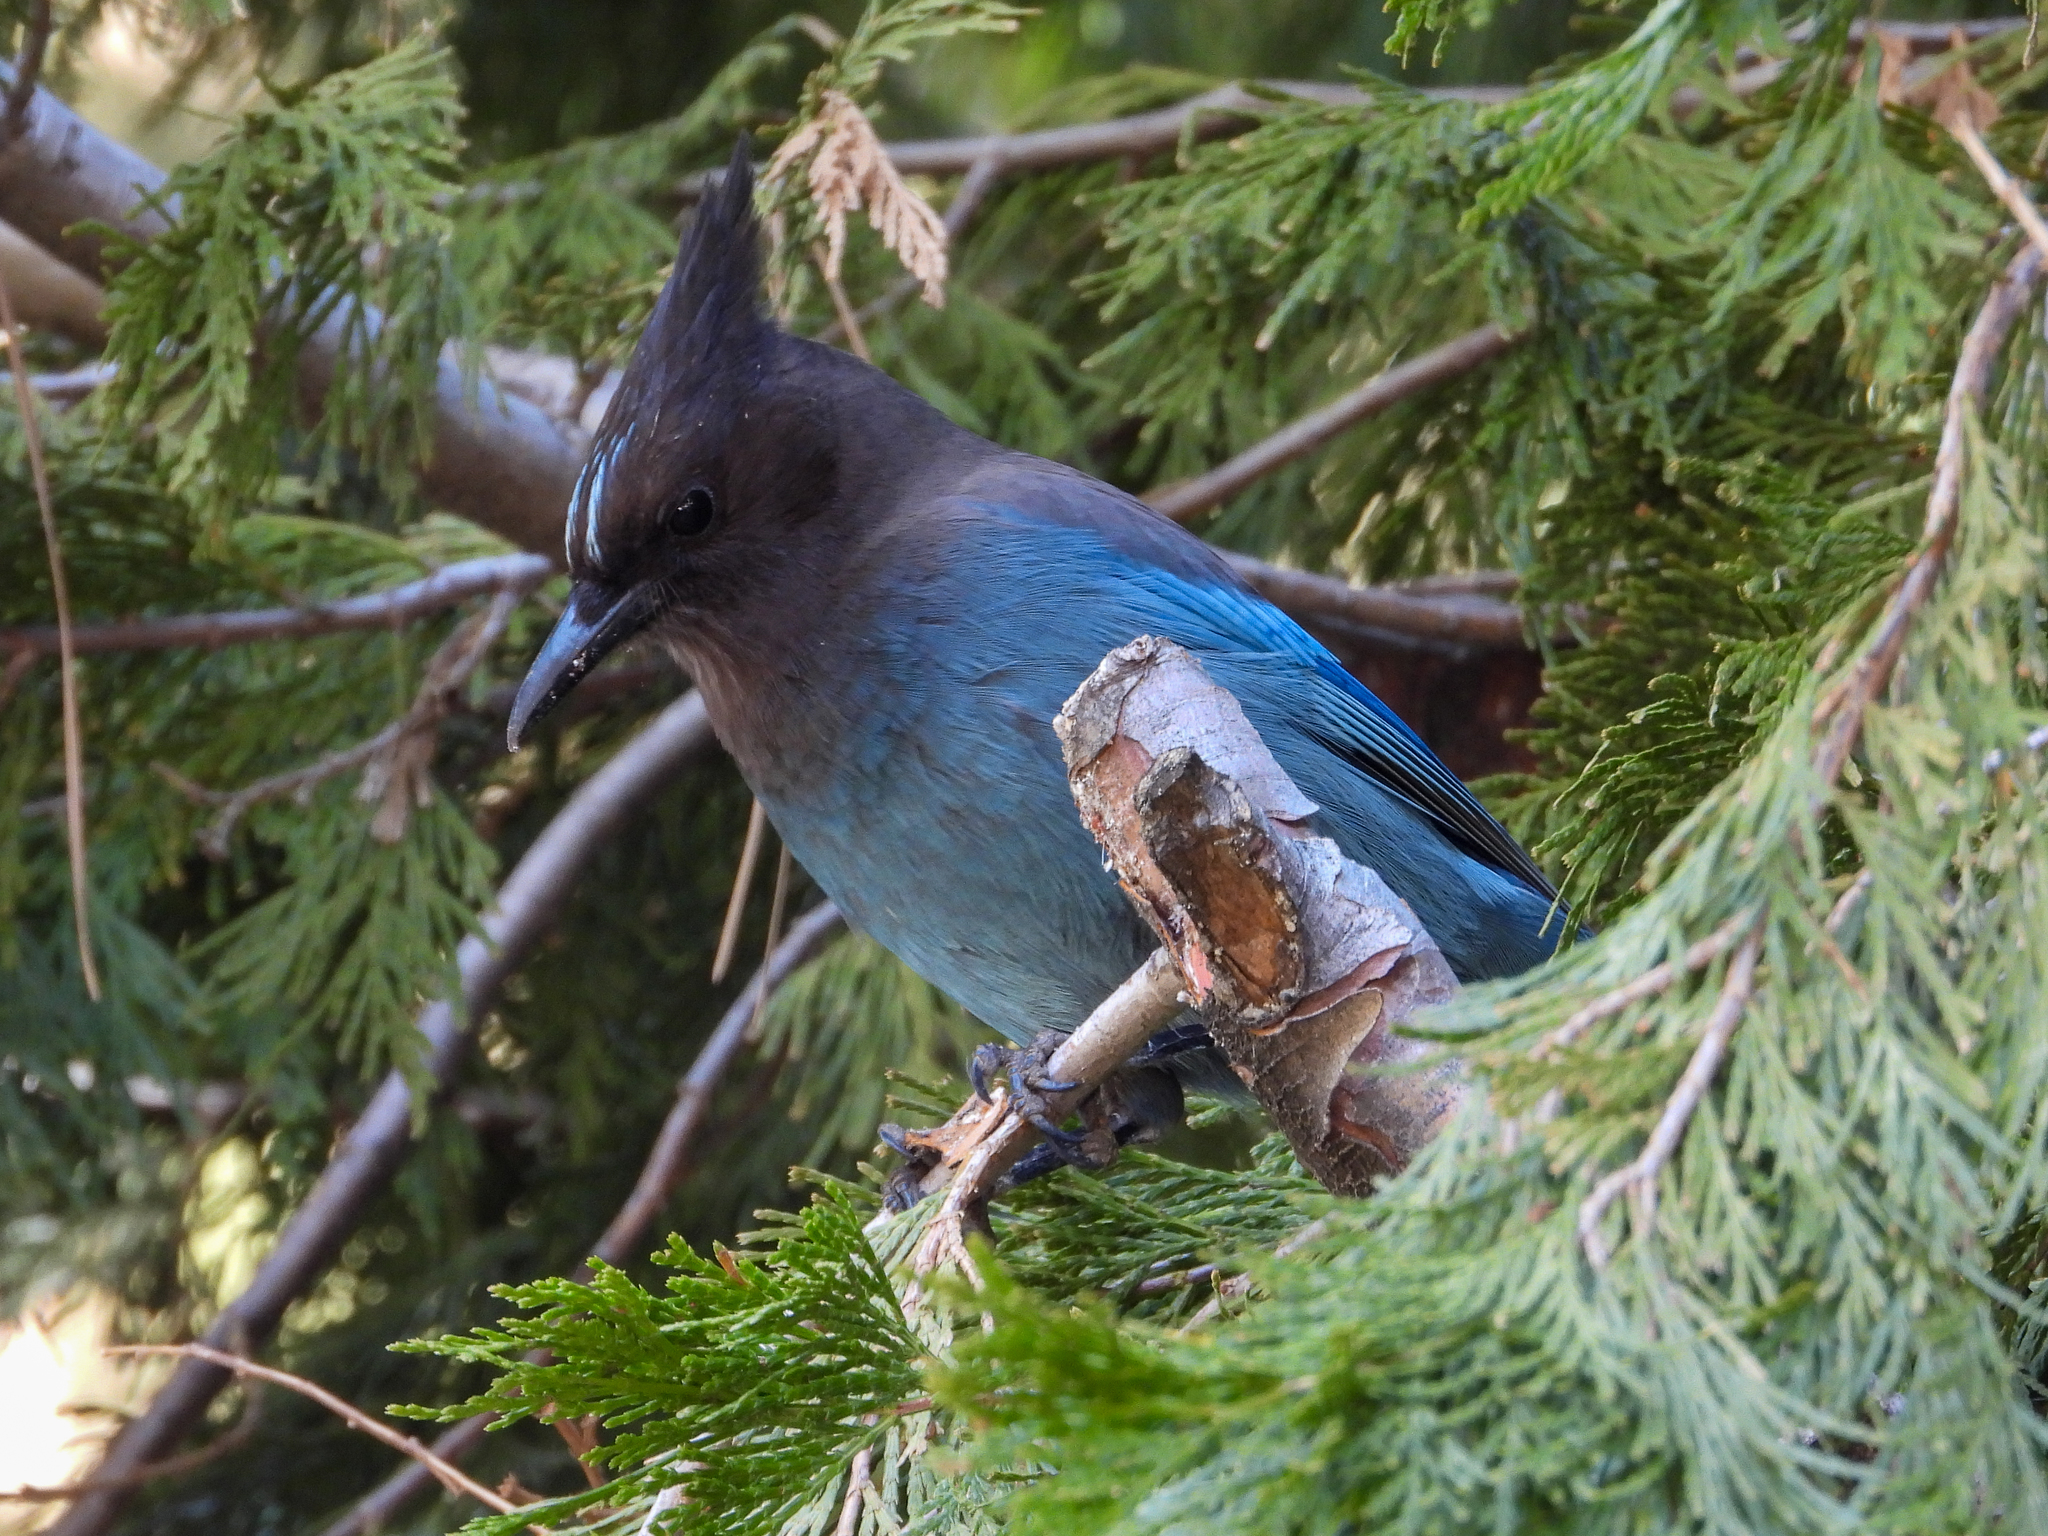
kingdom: Animalia
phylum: Chordata
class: Aves
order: Passeriformes
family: Corvidae
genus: Cyanocitta
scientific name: Cyanocitta stelleri
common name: Steller's jay
